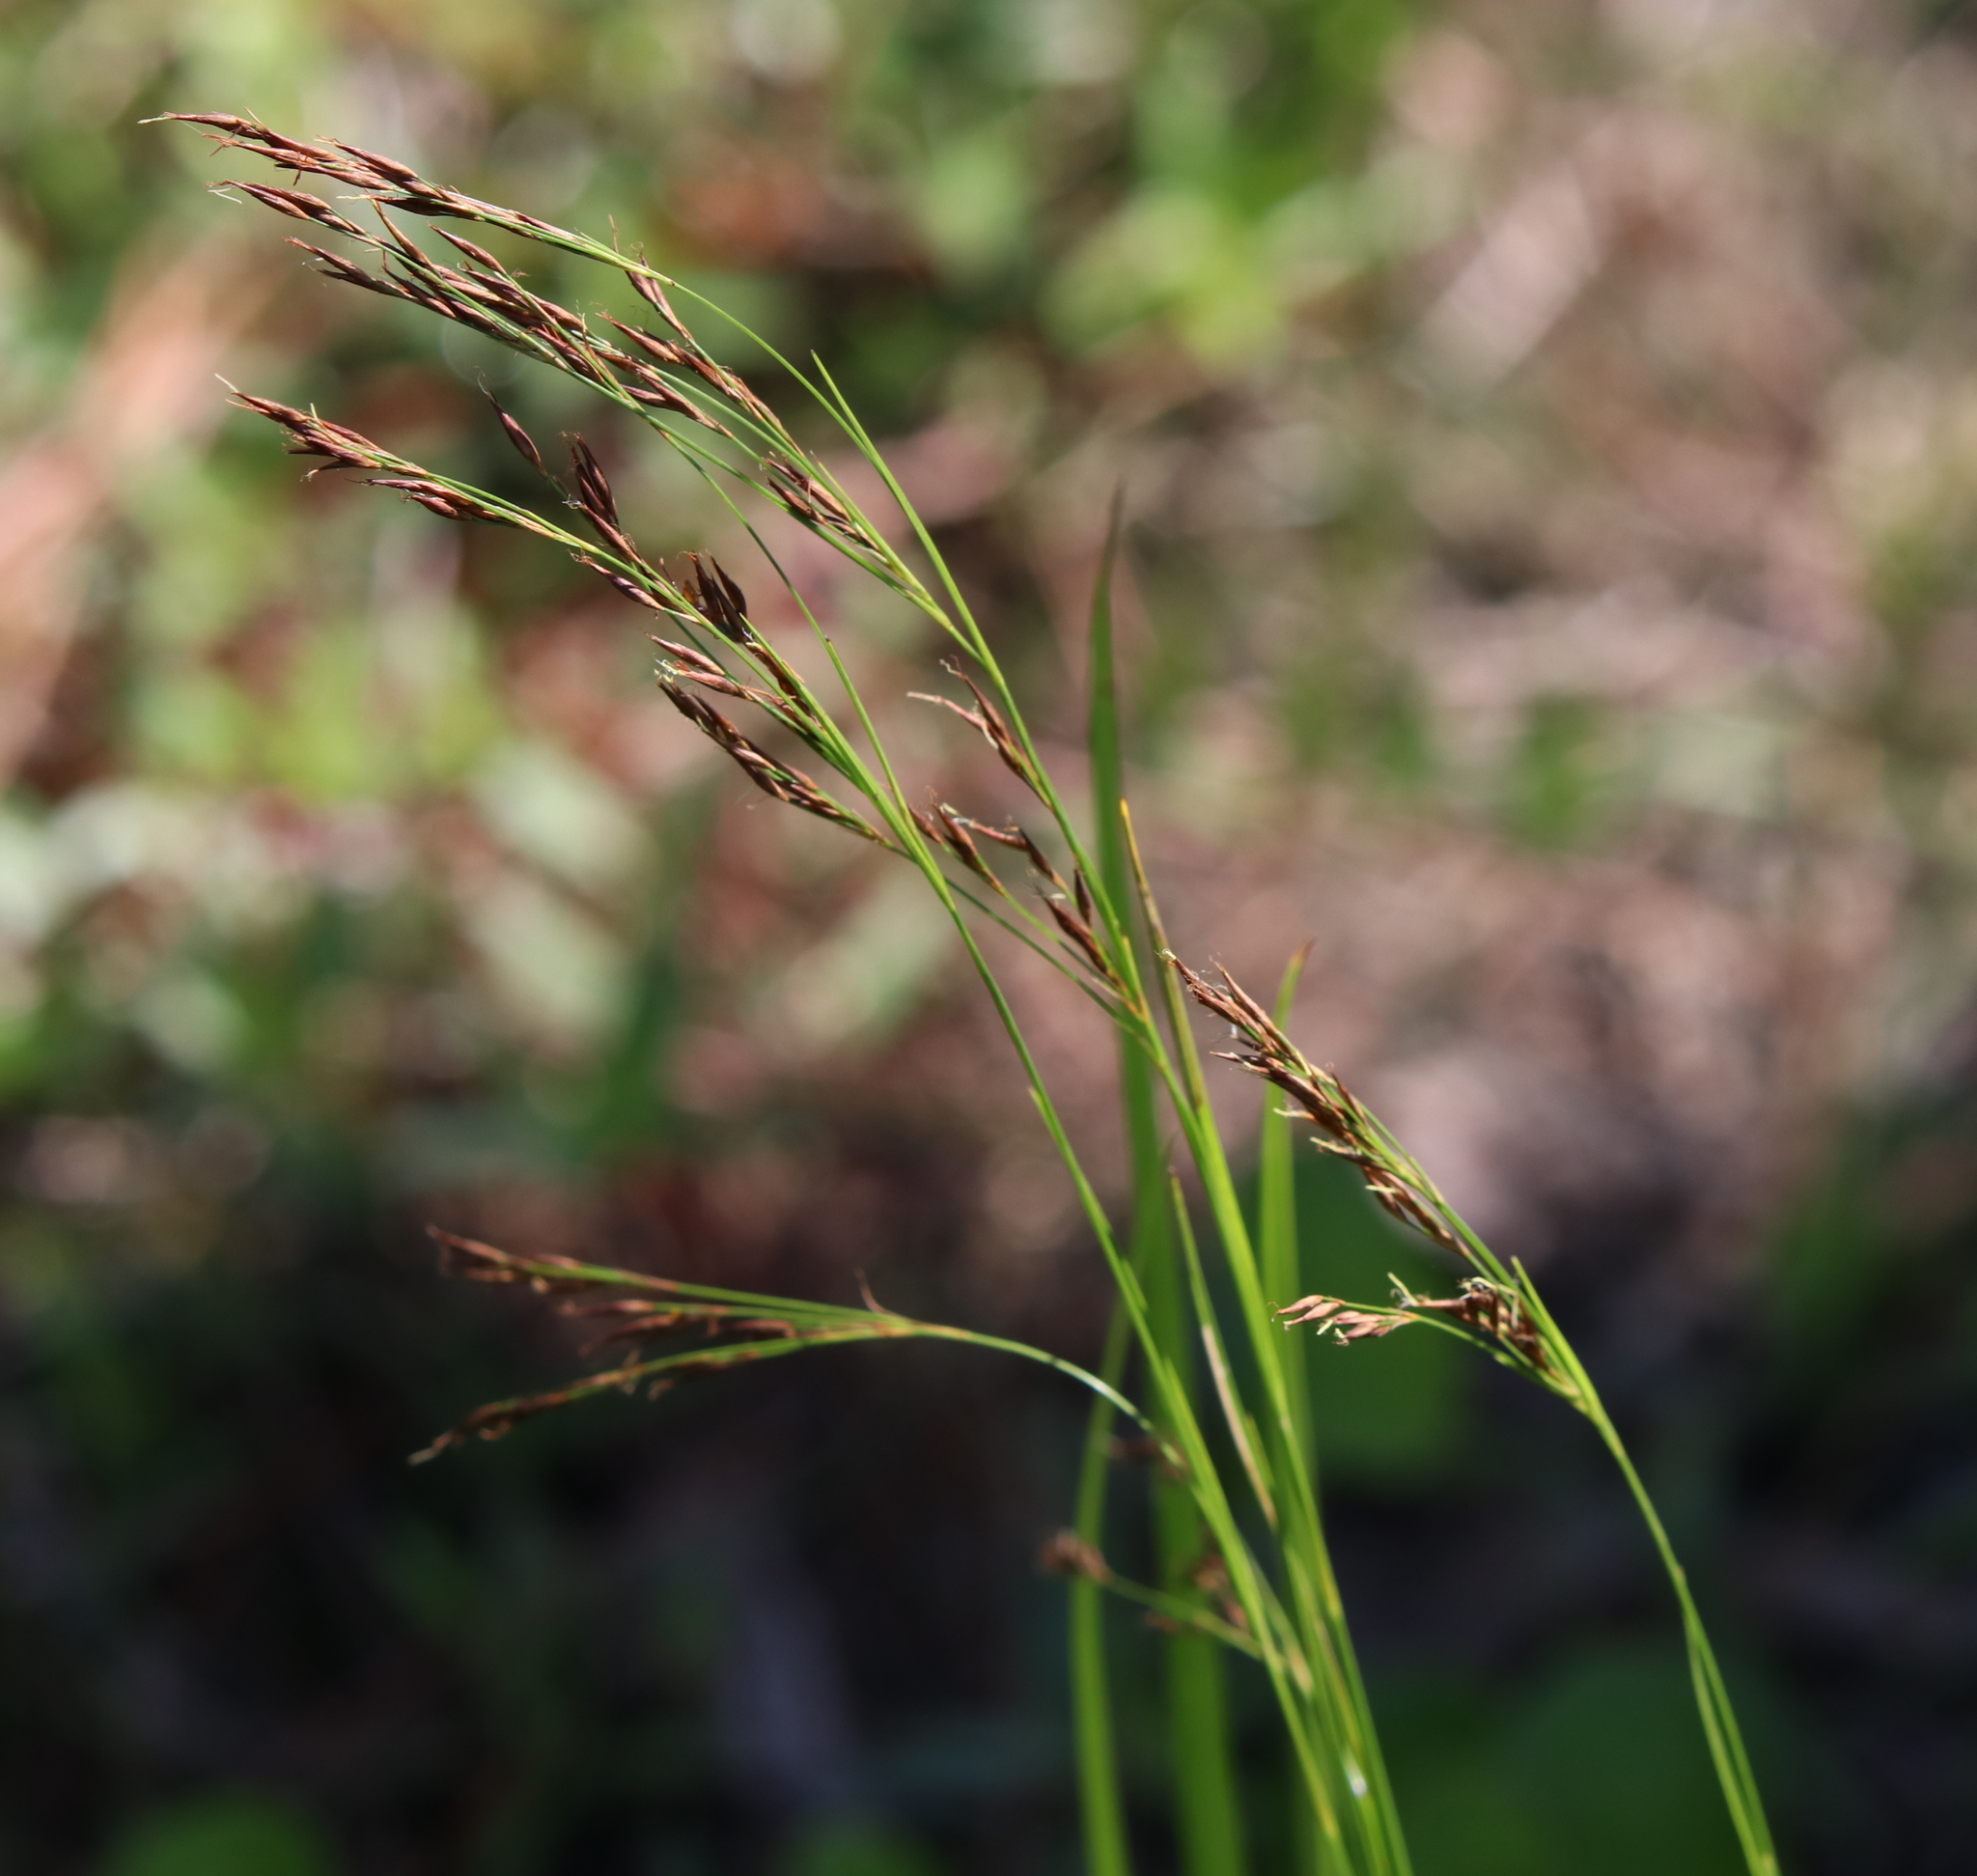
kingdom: Plantae
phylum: Tracheophyta
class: Liliopsida
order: Poales
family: Cyperaceae
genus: Rhynchospora
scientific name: Rhynchospora inexpansa
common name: Nodding beaksedge
